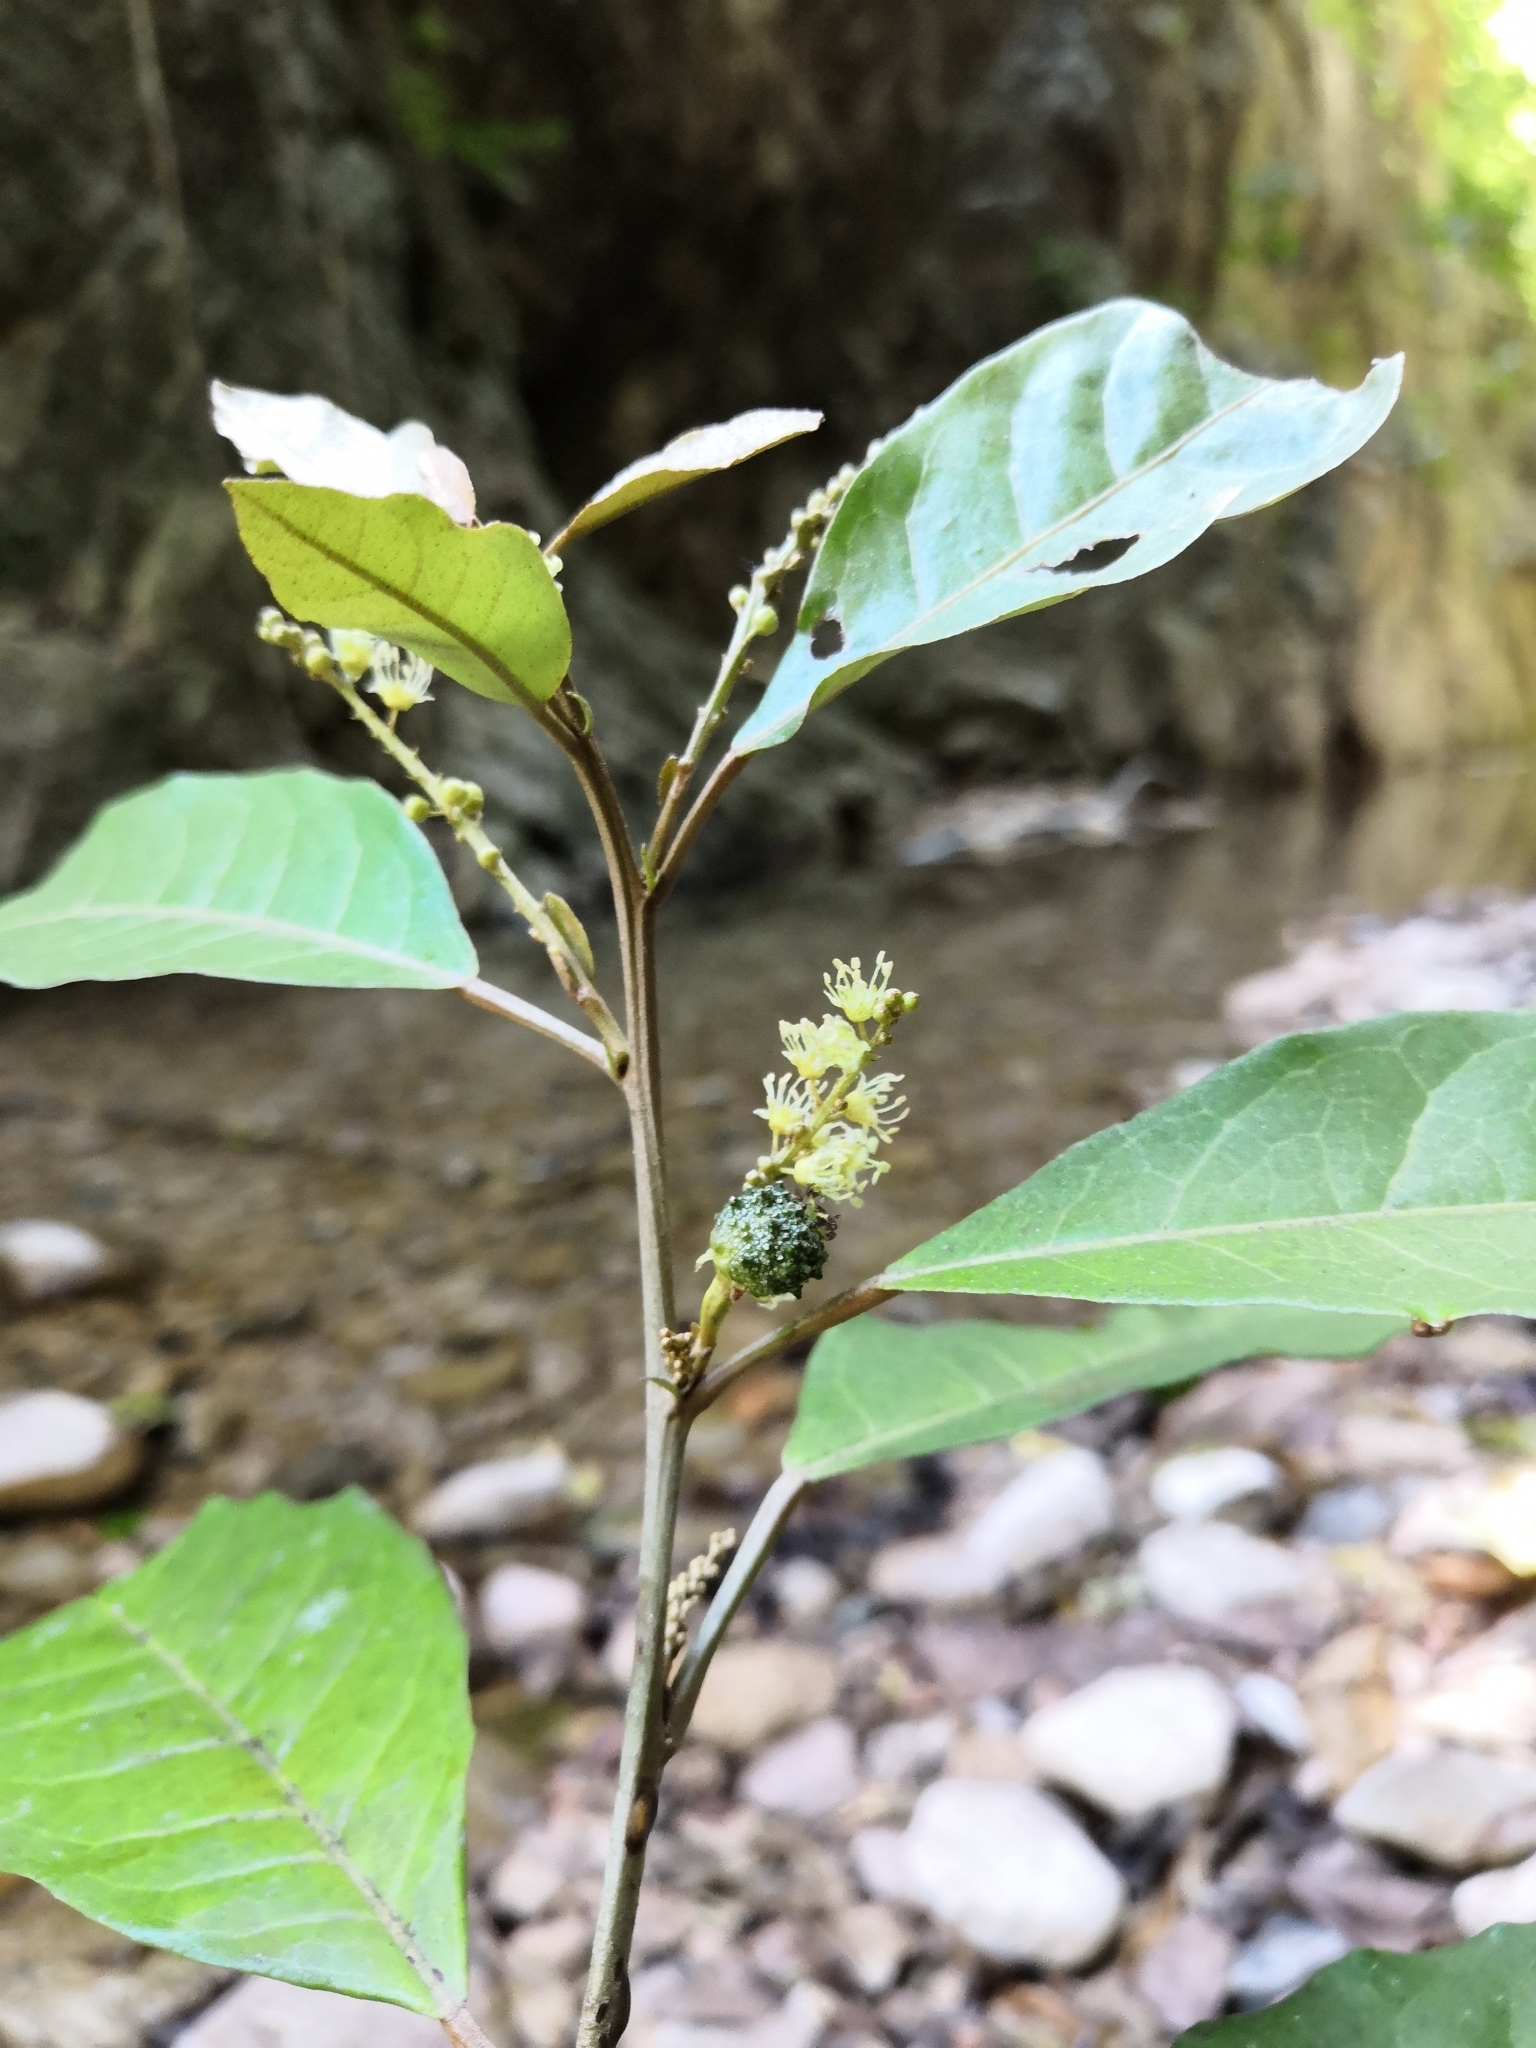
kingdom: Plantae
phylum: Tracheophyta
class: Magnoliopsida
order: Malpighiales
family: Euphorbiaceae
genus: Croton
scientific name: Croton schiedeanus
